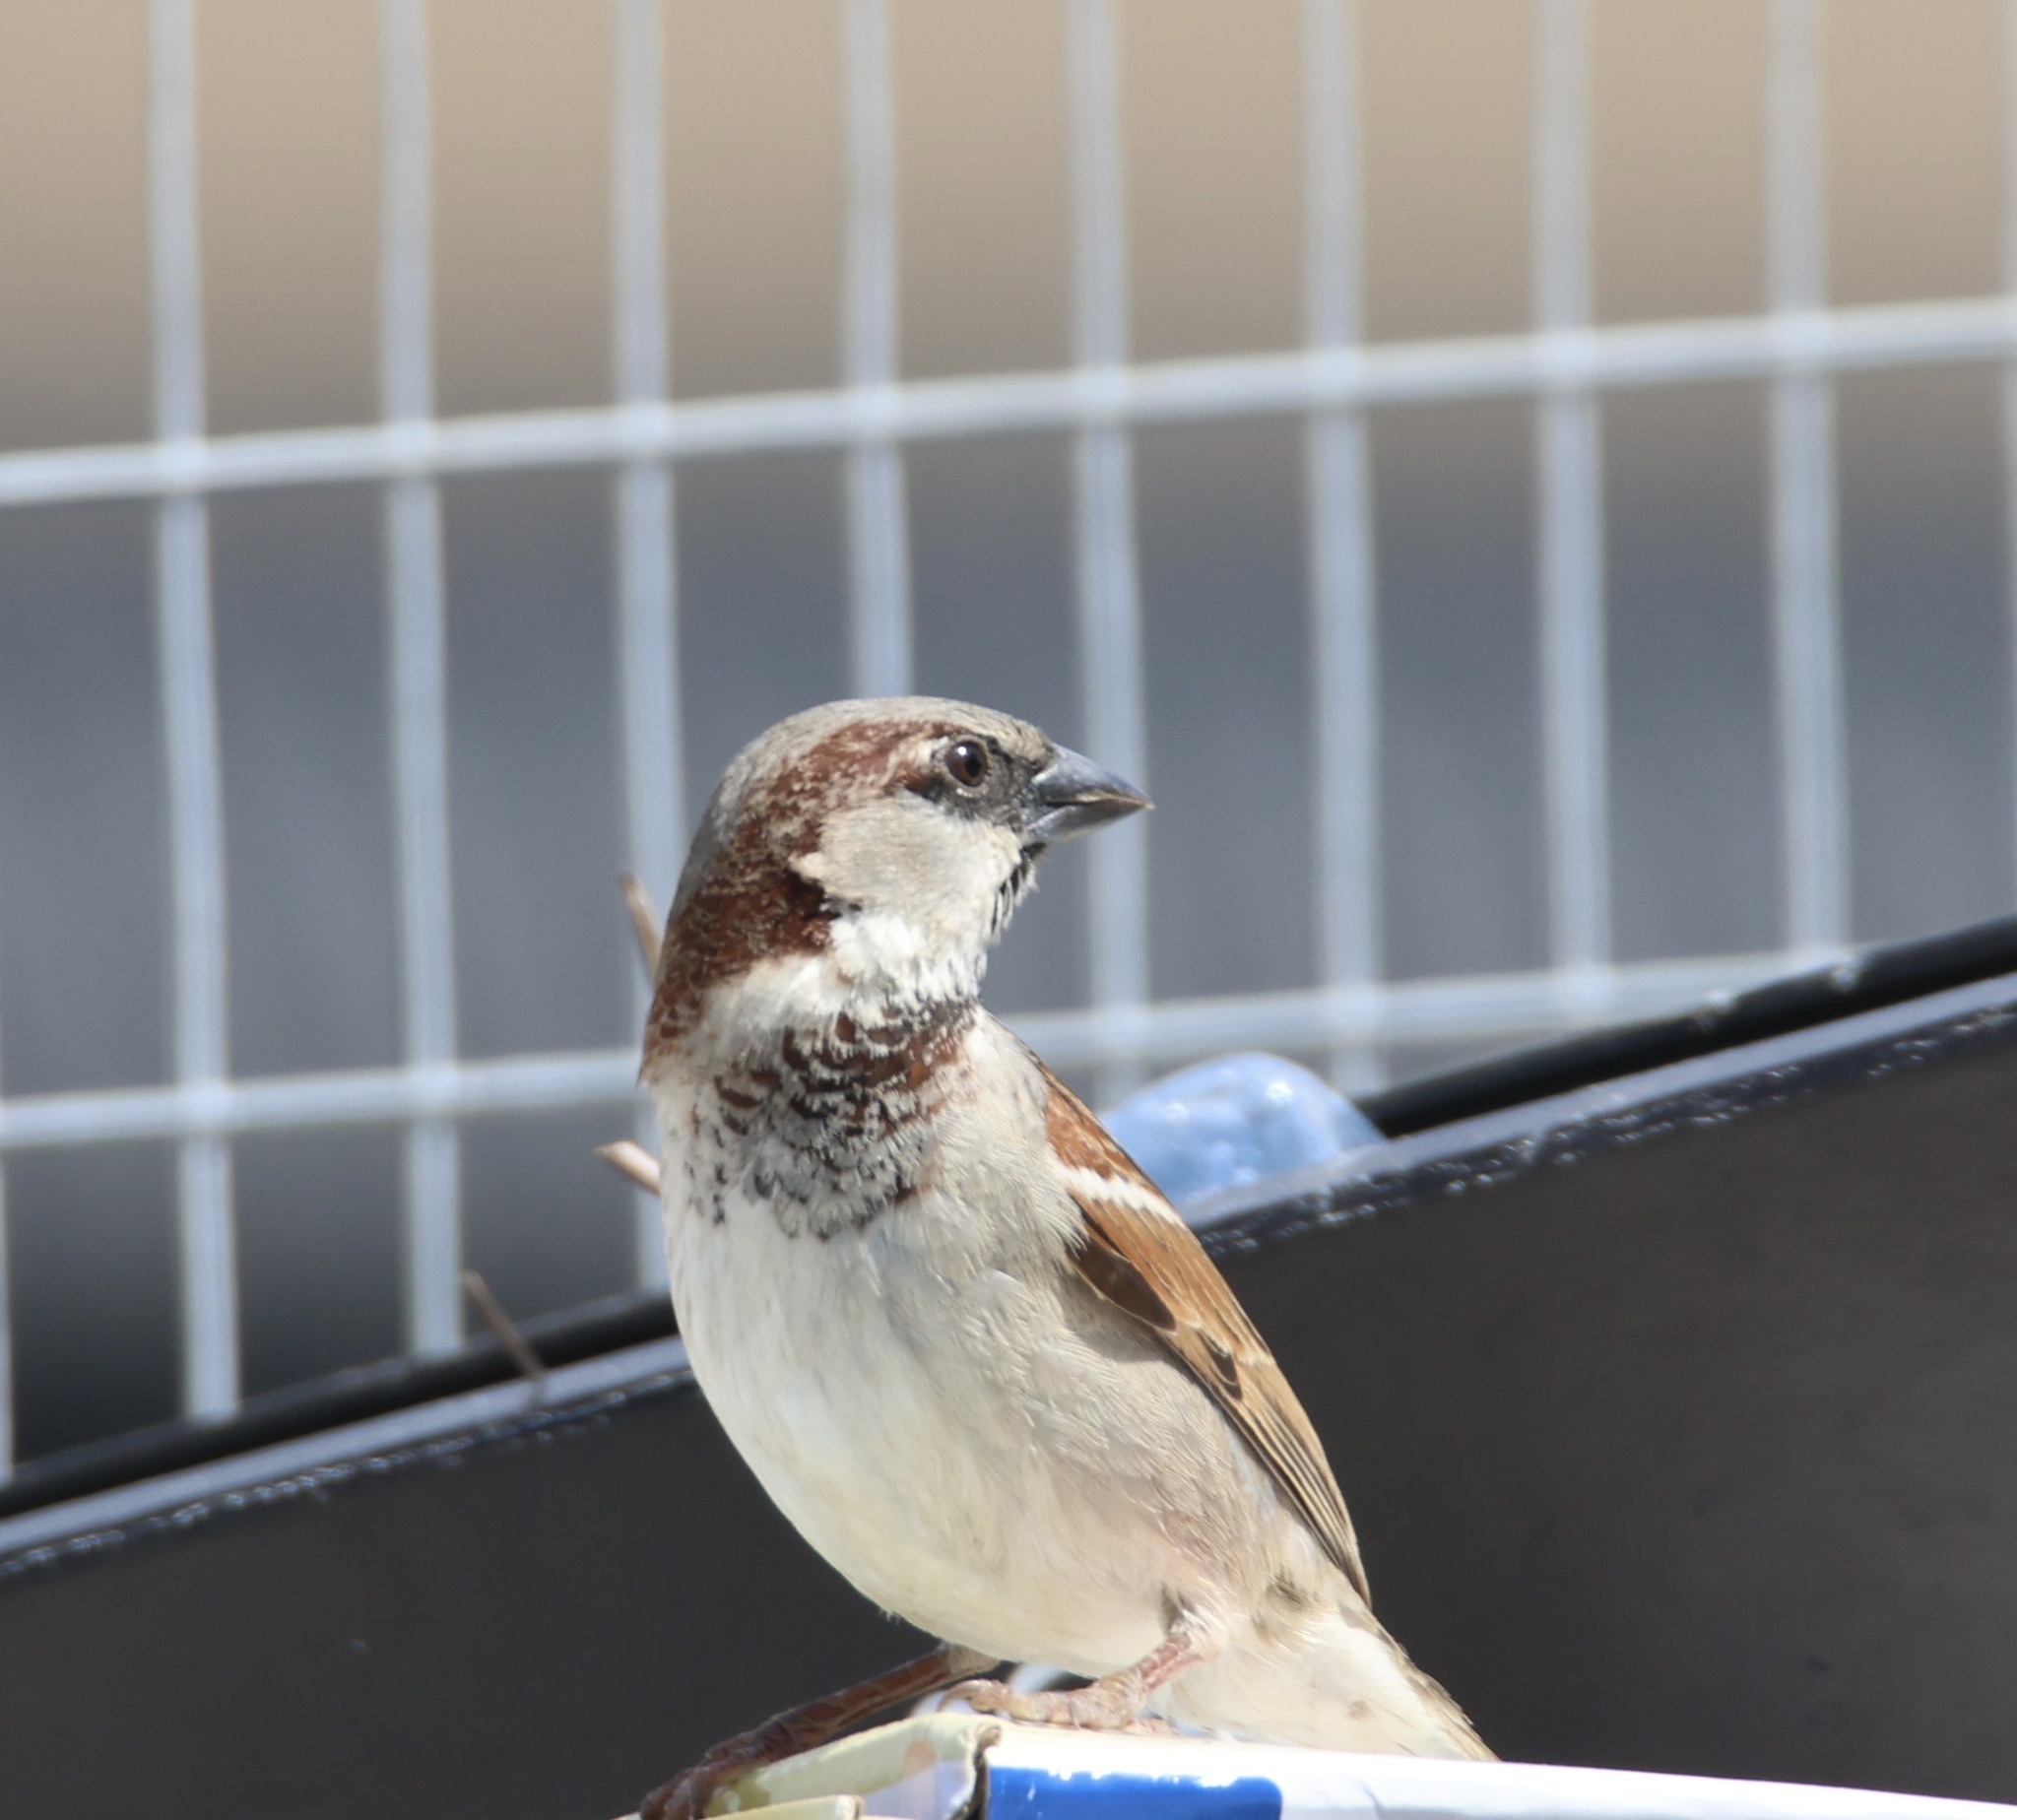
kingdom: Animalia
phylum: Chordata
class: Aves
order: Passeriformes
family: Passeridae
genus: Passer
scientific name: Passer domesticus
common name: House sparrow
